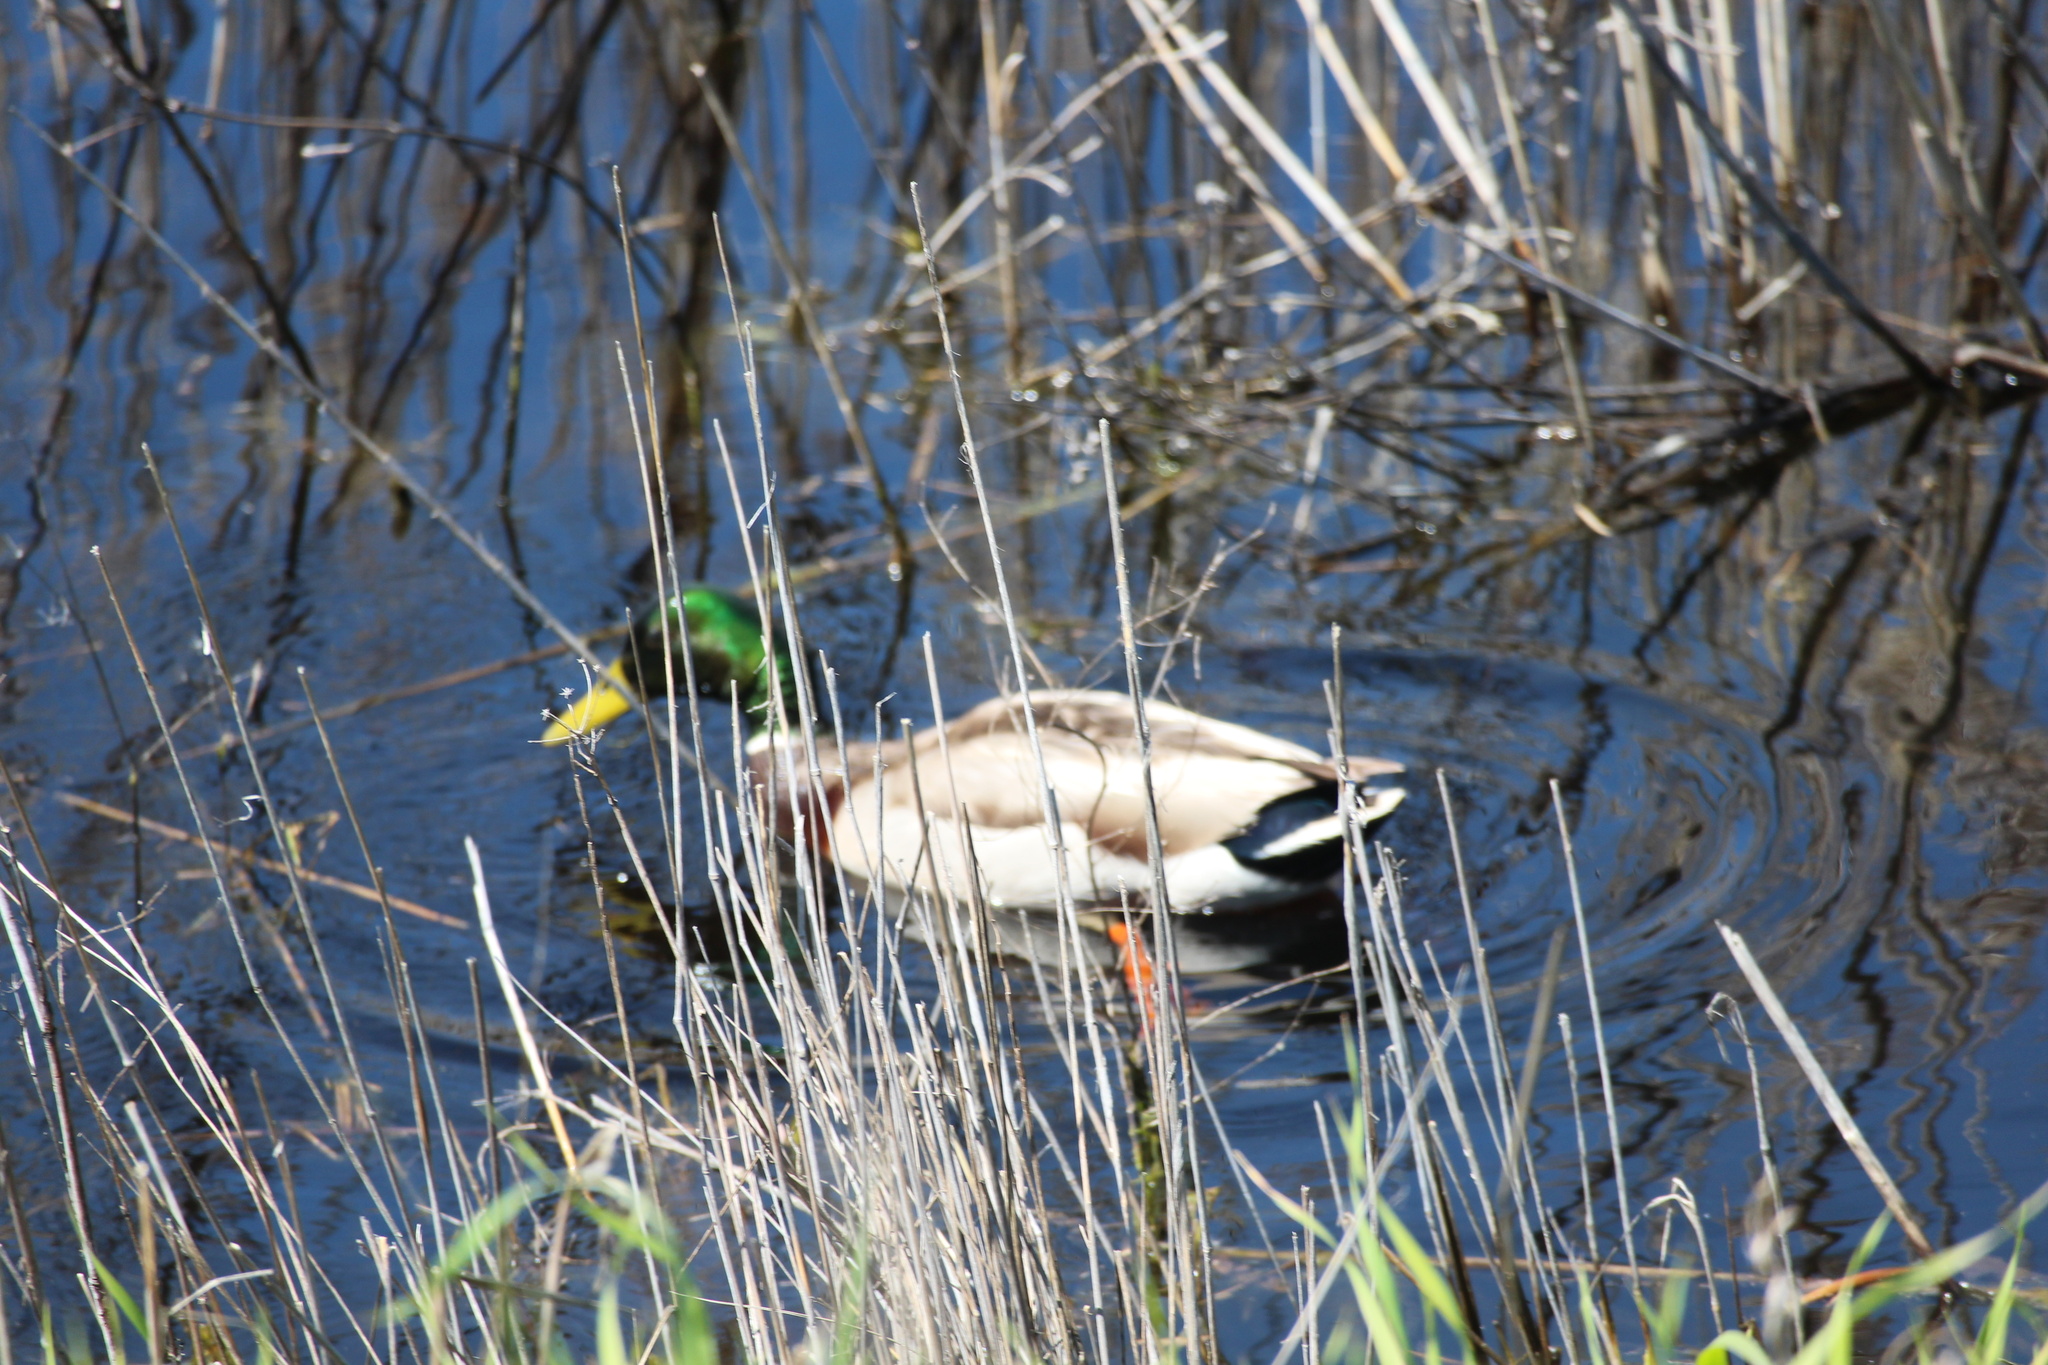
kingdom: Animalia
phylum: Chordata
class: Aves
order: Anseriformes
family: Anatidae
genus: Anas
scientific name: Anas platyrhynchos
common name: Mallard
